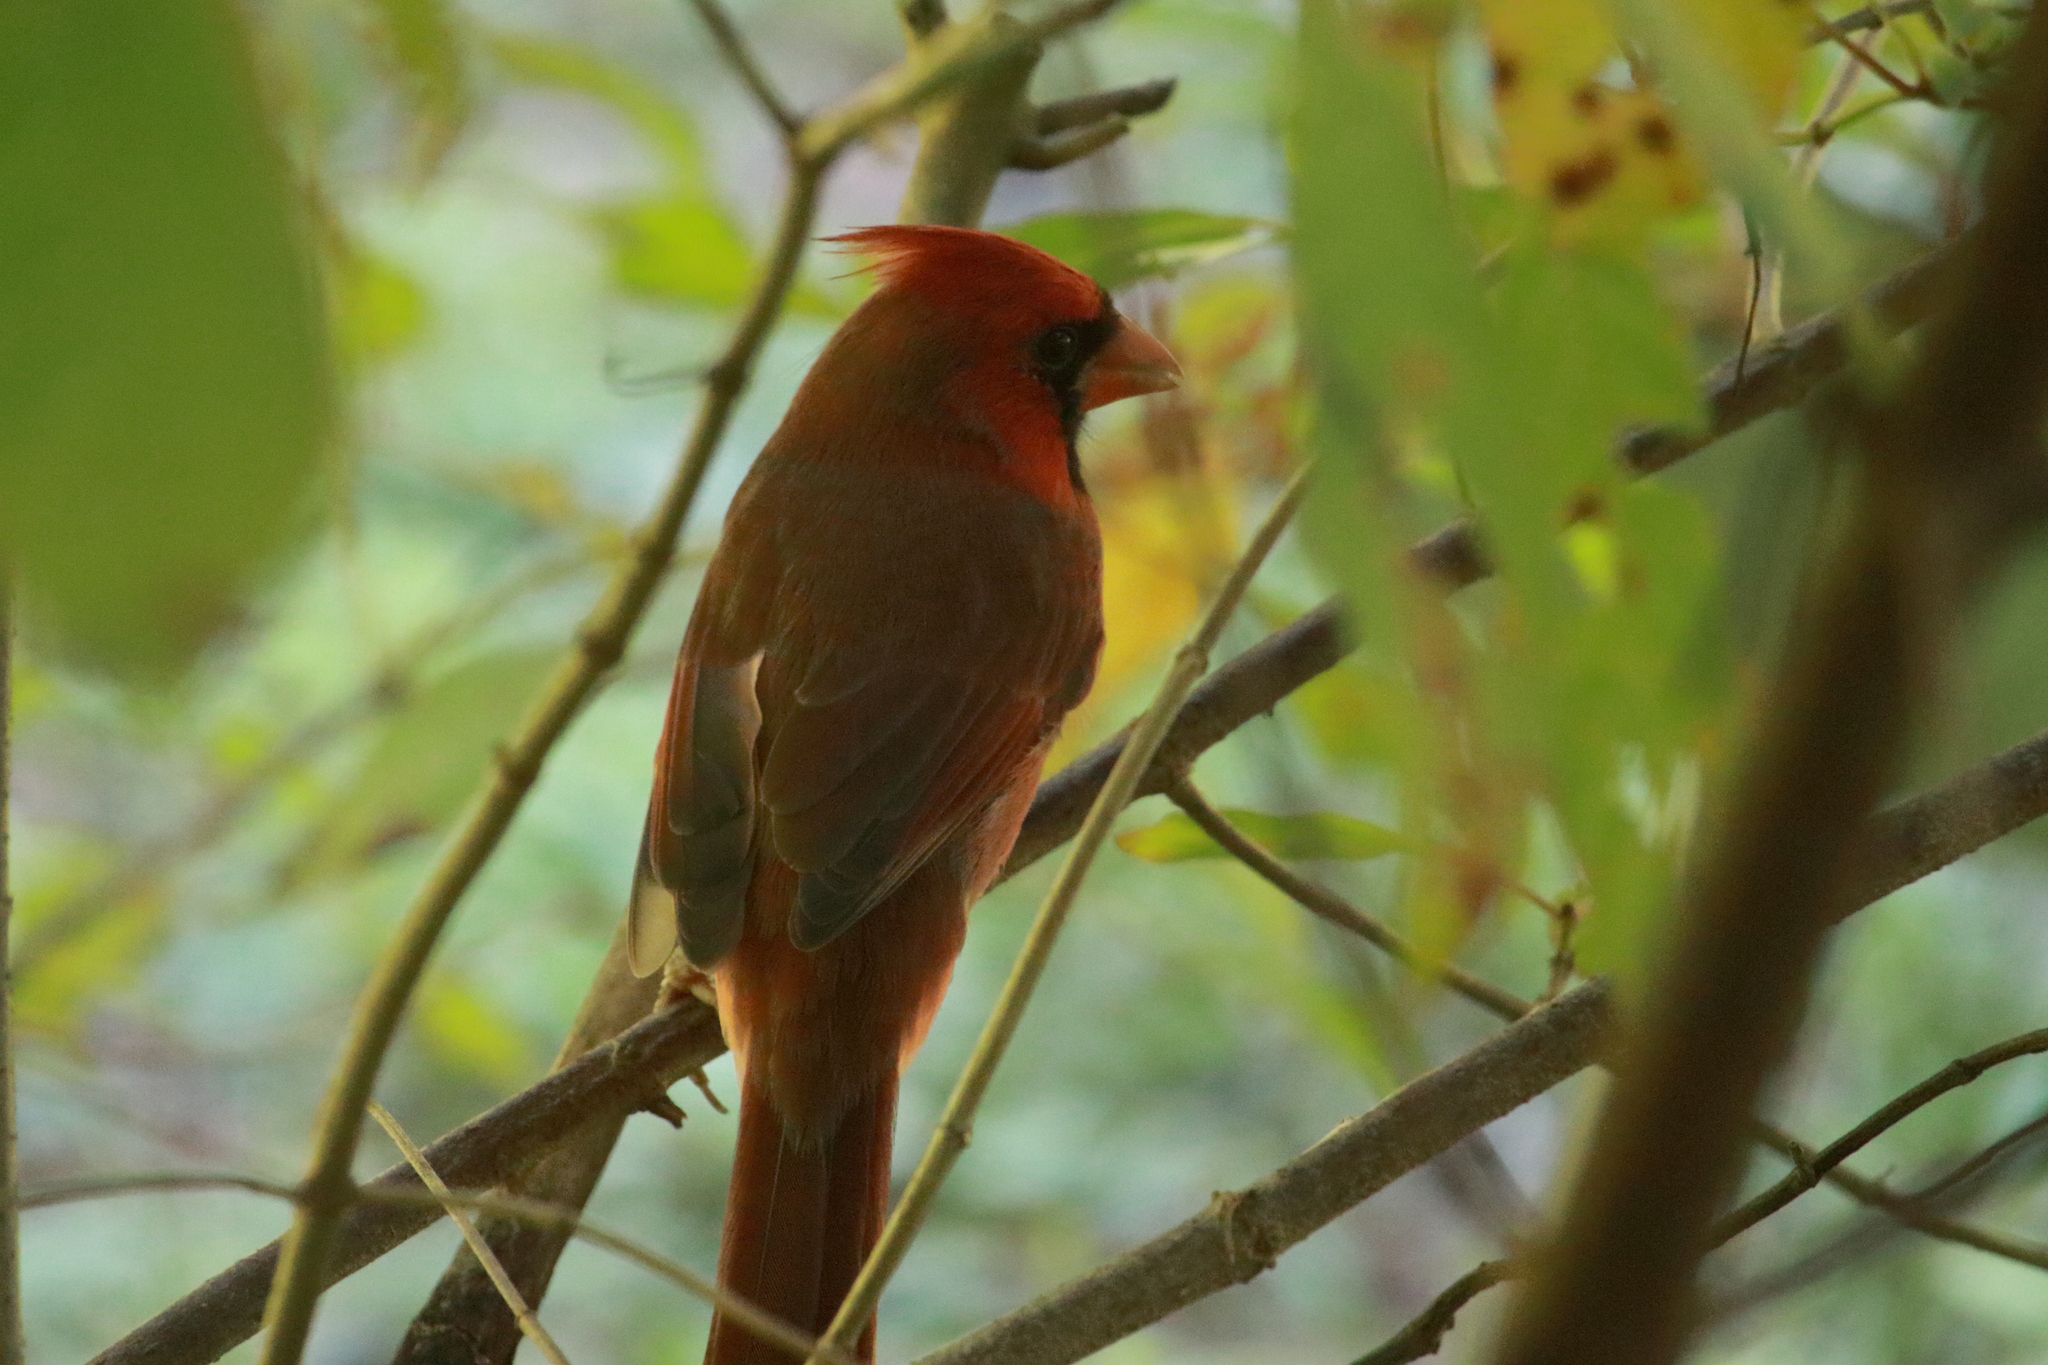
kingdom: Animalia
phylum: Chordata
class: Aves
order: Passeriformes
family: Cardinalidae
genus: Cardinalis
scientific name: Cardinalis cardinalis
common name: Northern cardinal
